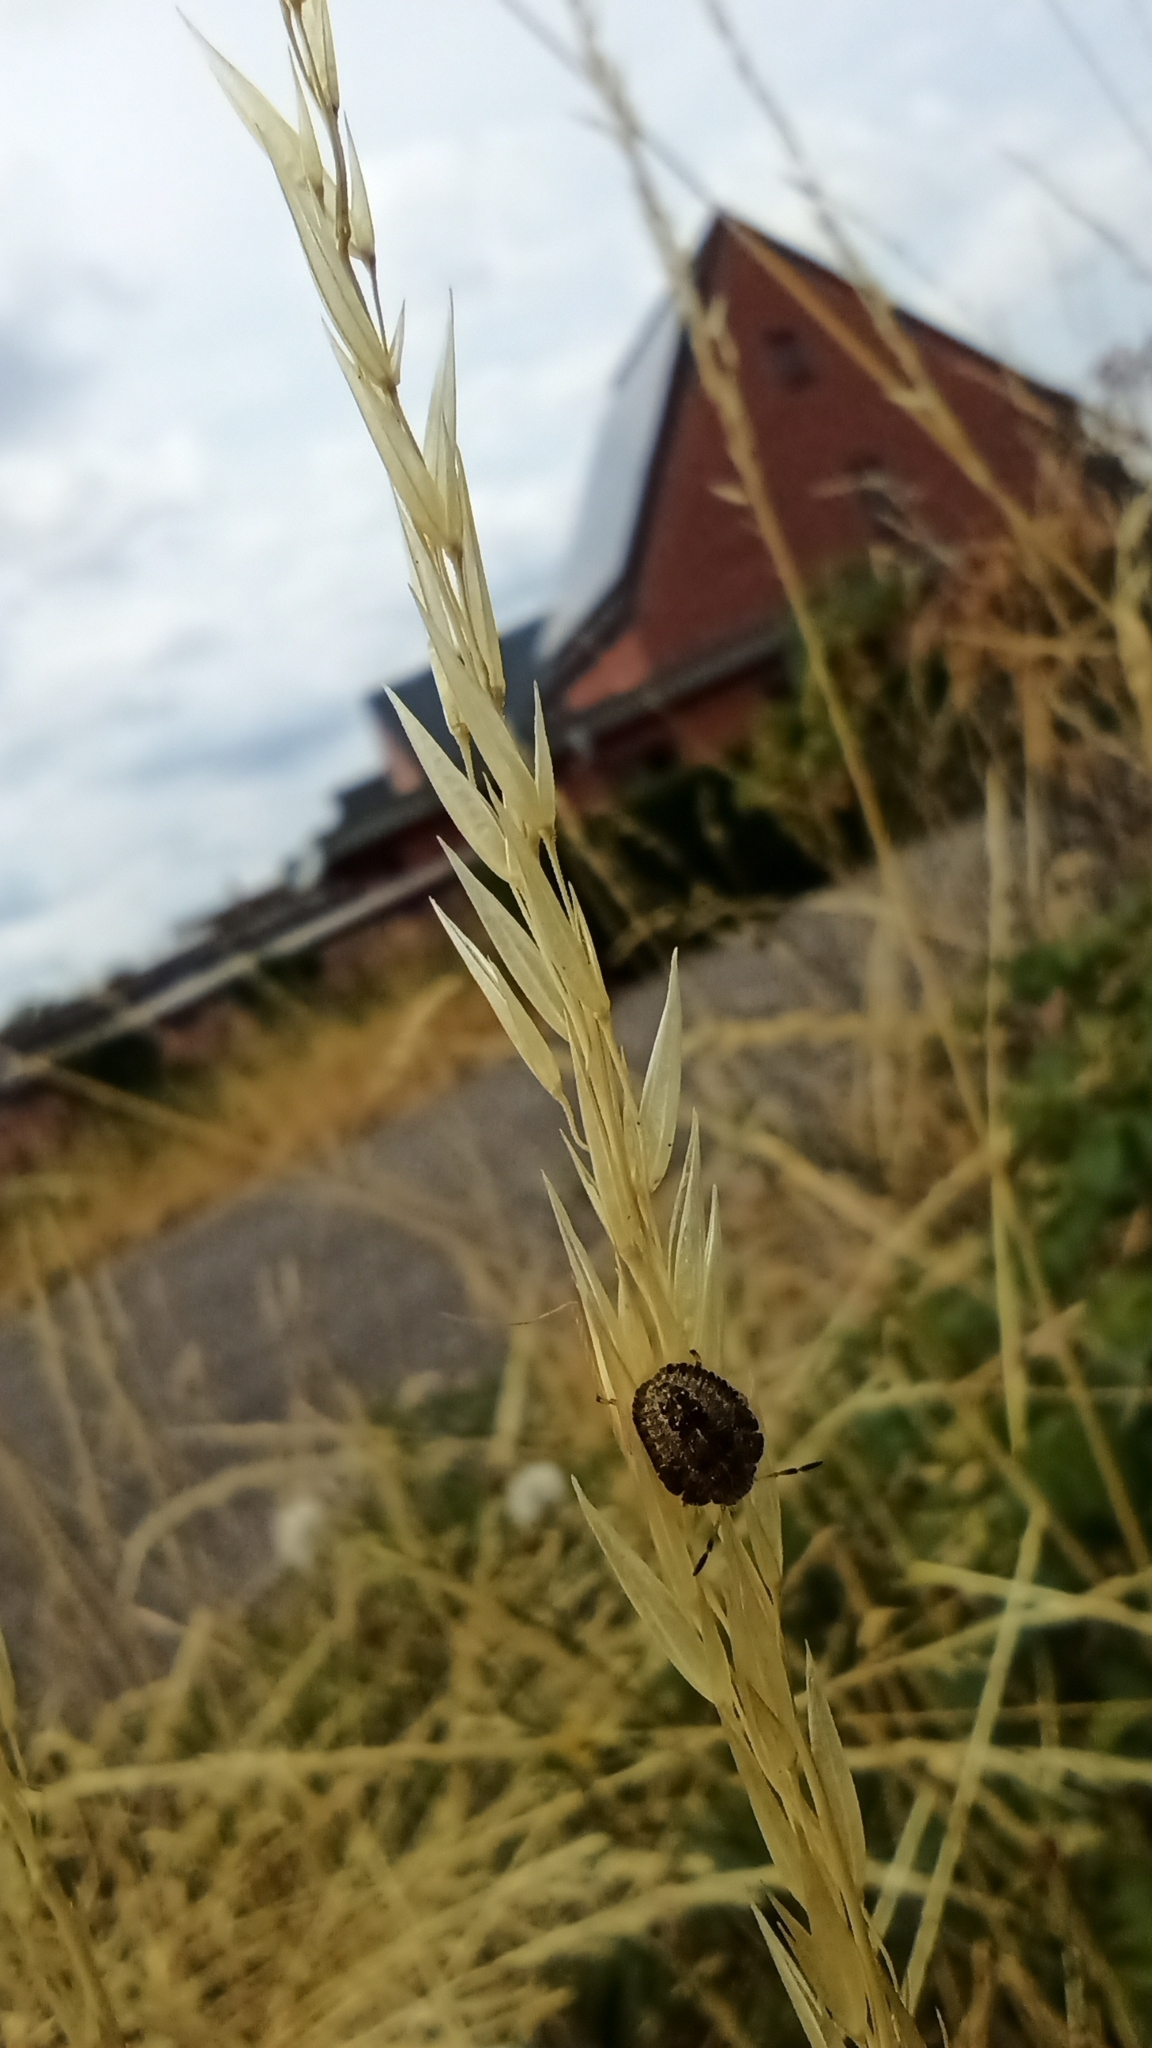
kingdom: Animalia
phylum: Arthropoda
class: Insecta
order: Hemiptera
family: Pentatomidae
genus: Dolycoris
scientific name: Dolycoris baccarum
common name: Sloe bug
